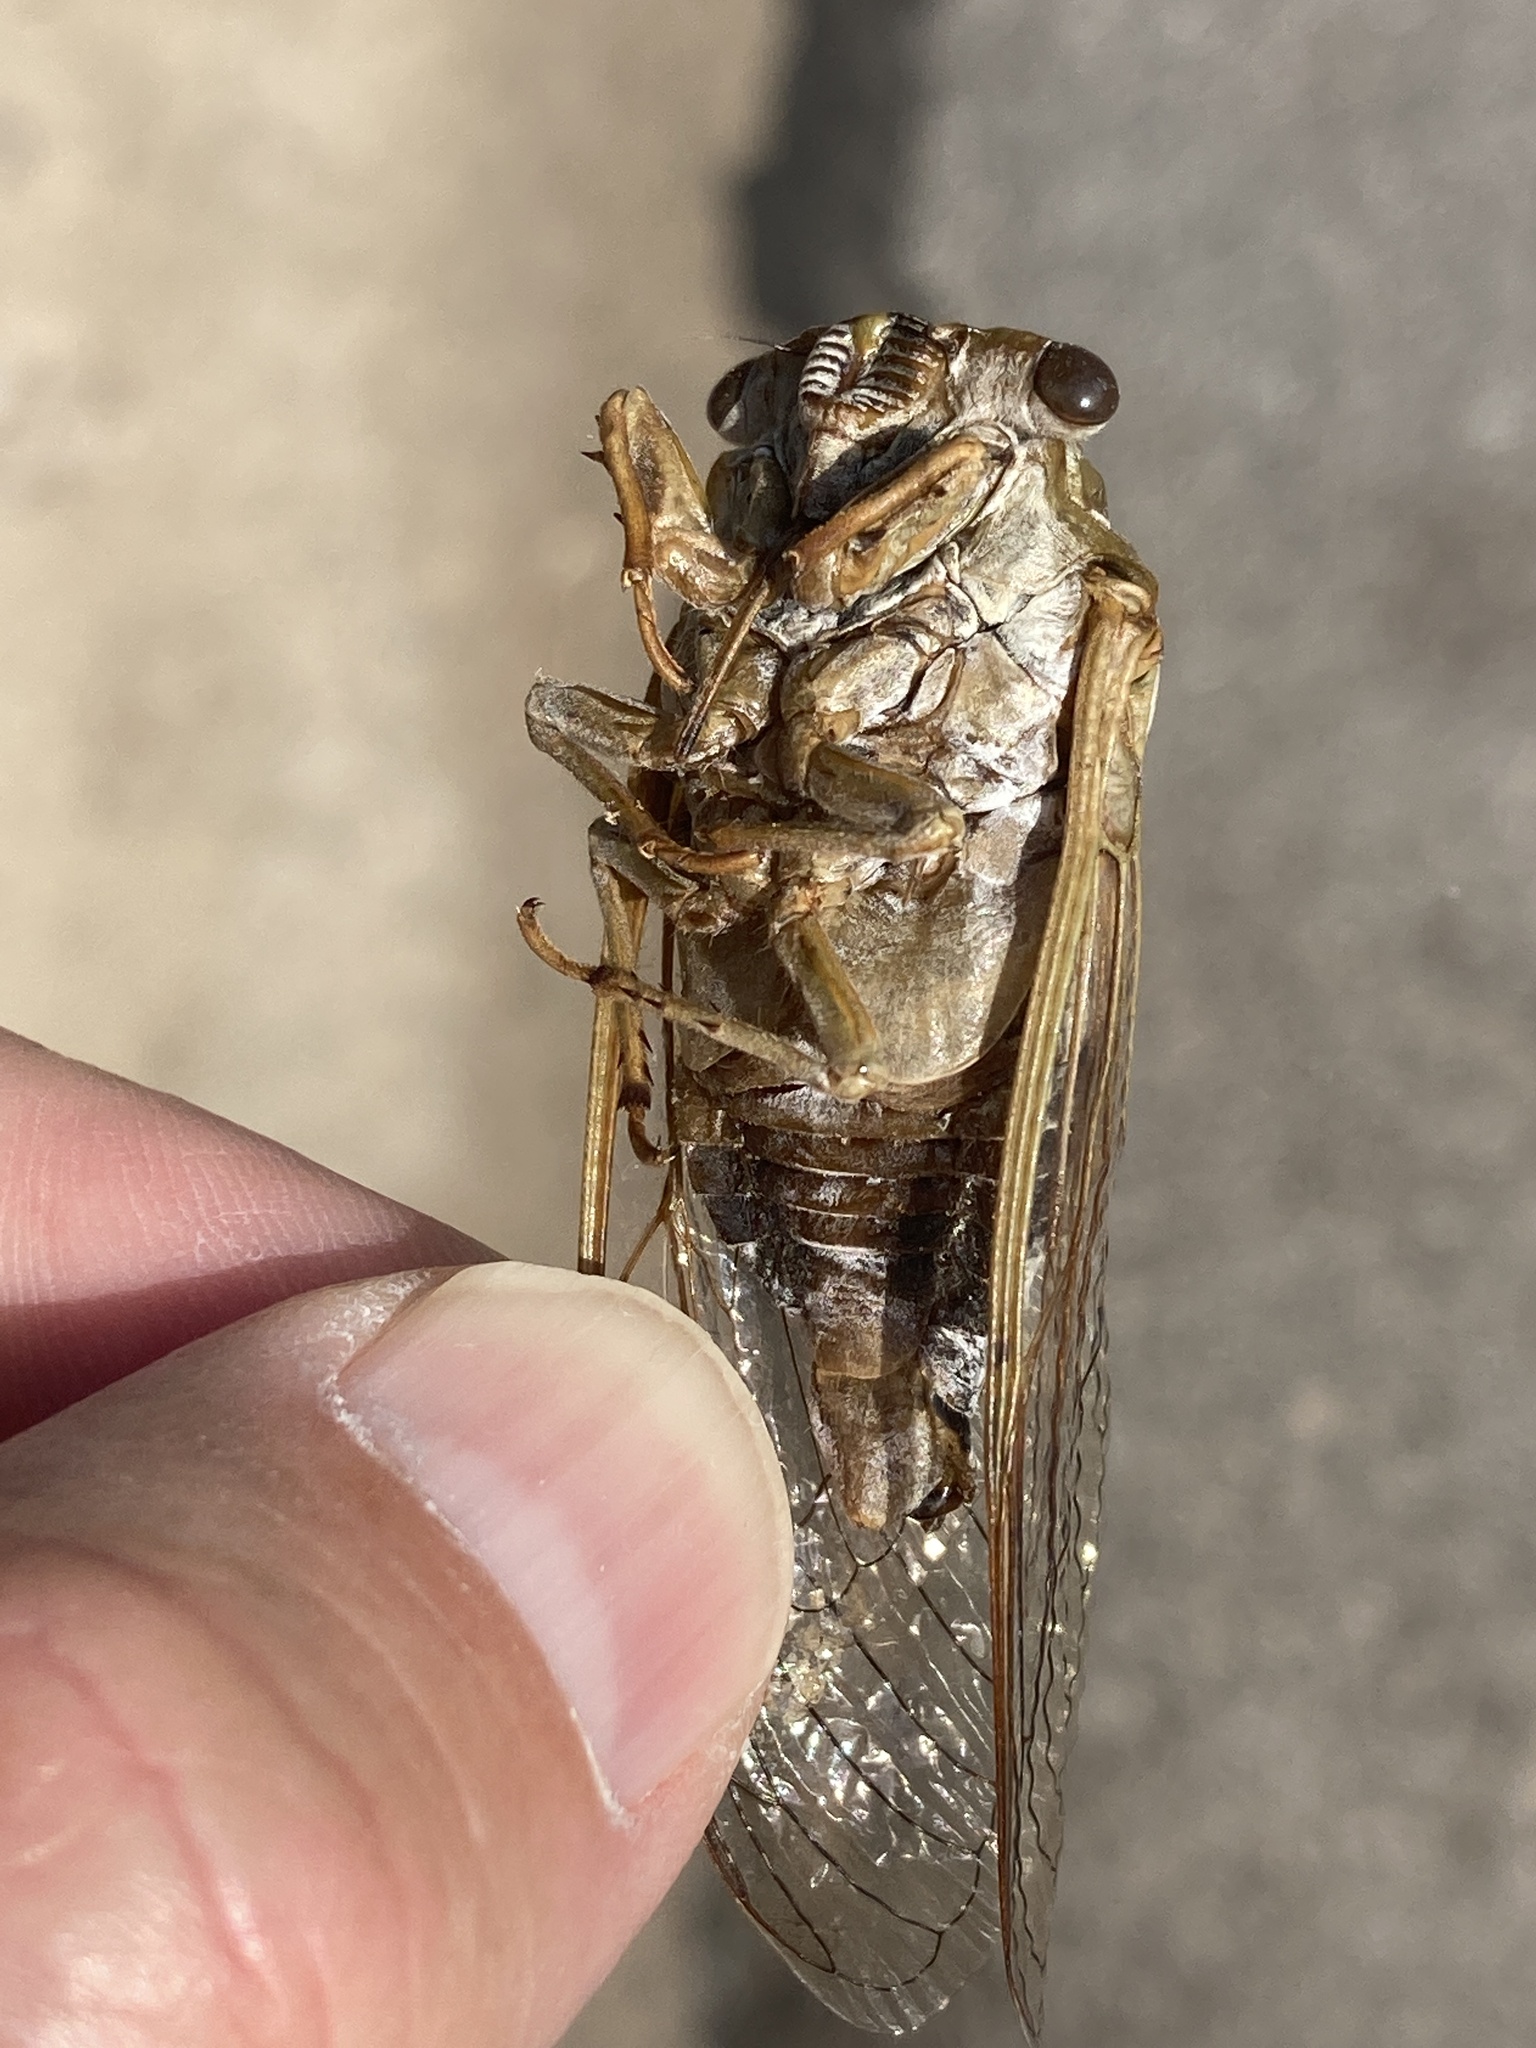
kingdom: Animalia
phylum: Arthropoda
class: Insecta
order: Hemiptera
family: Cicadidae
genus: Megatibicen
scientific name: Megatibicen dealbatus
